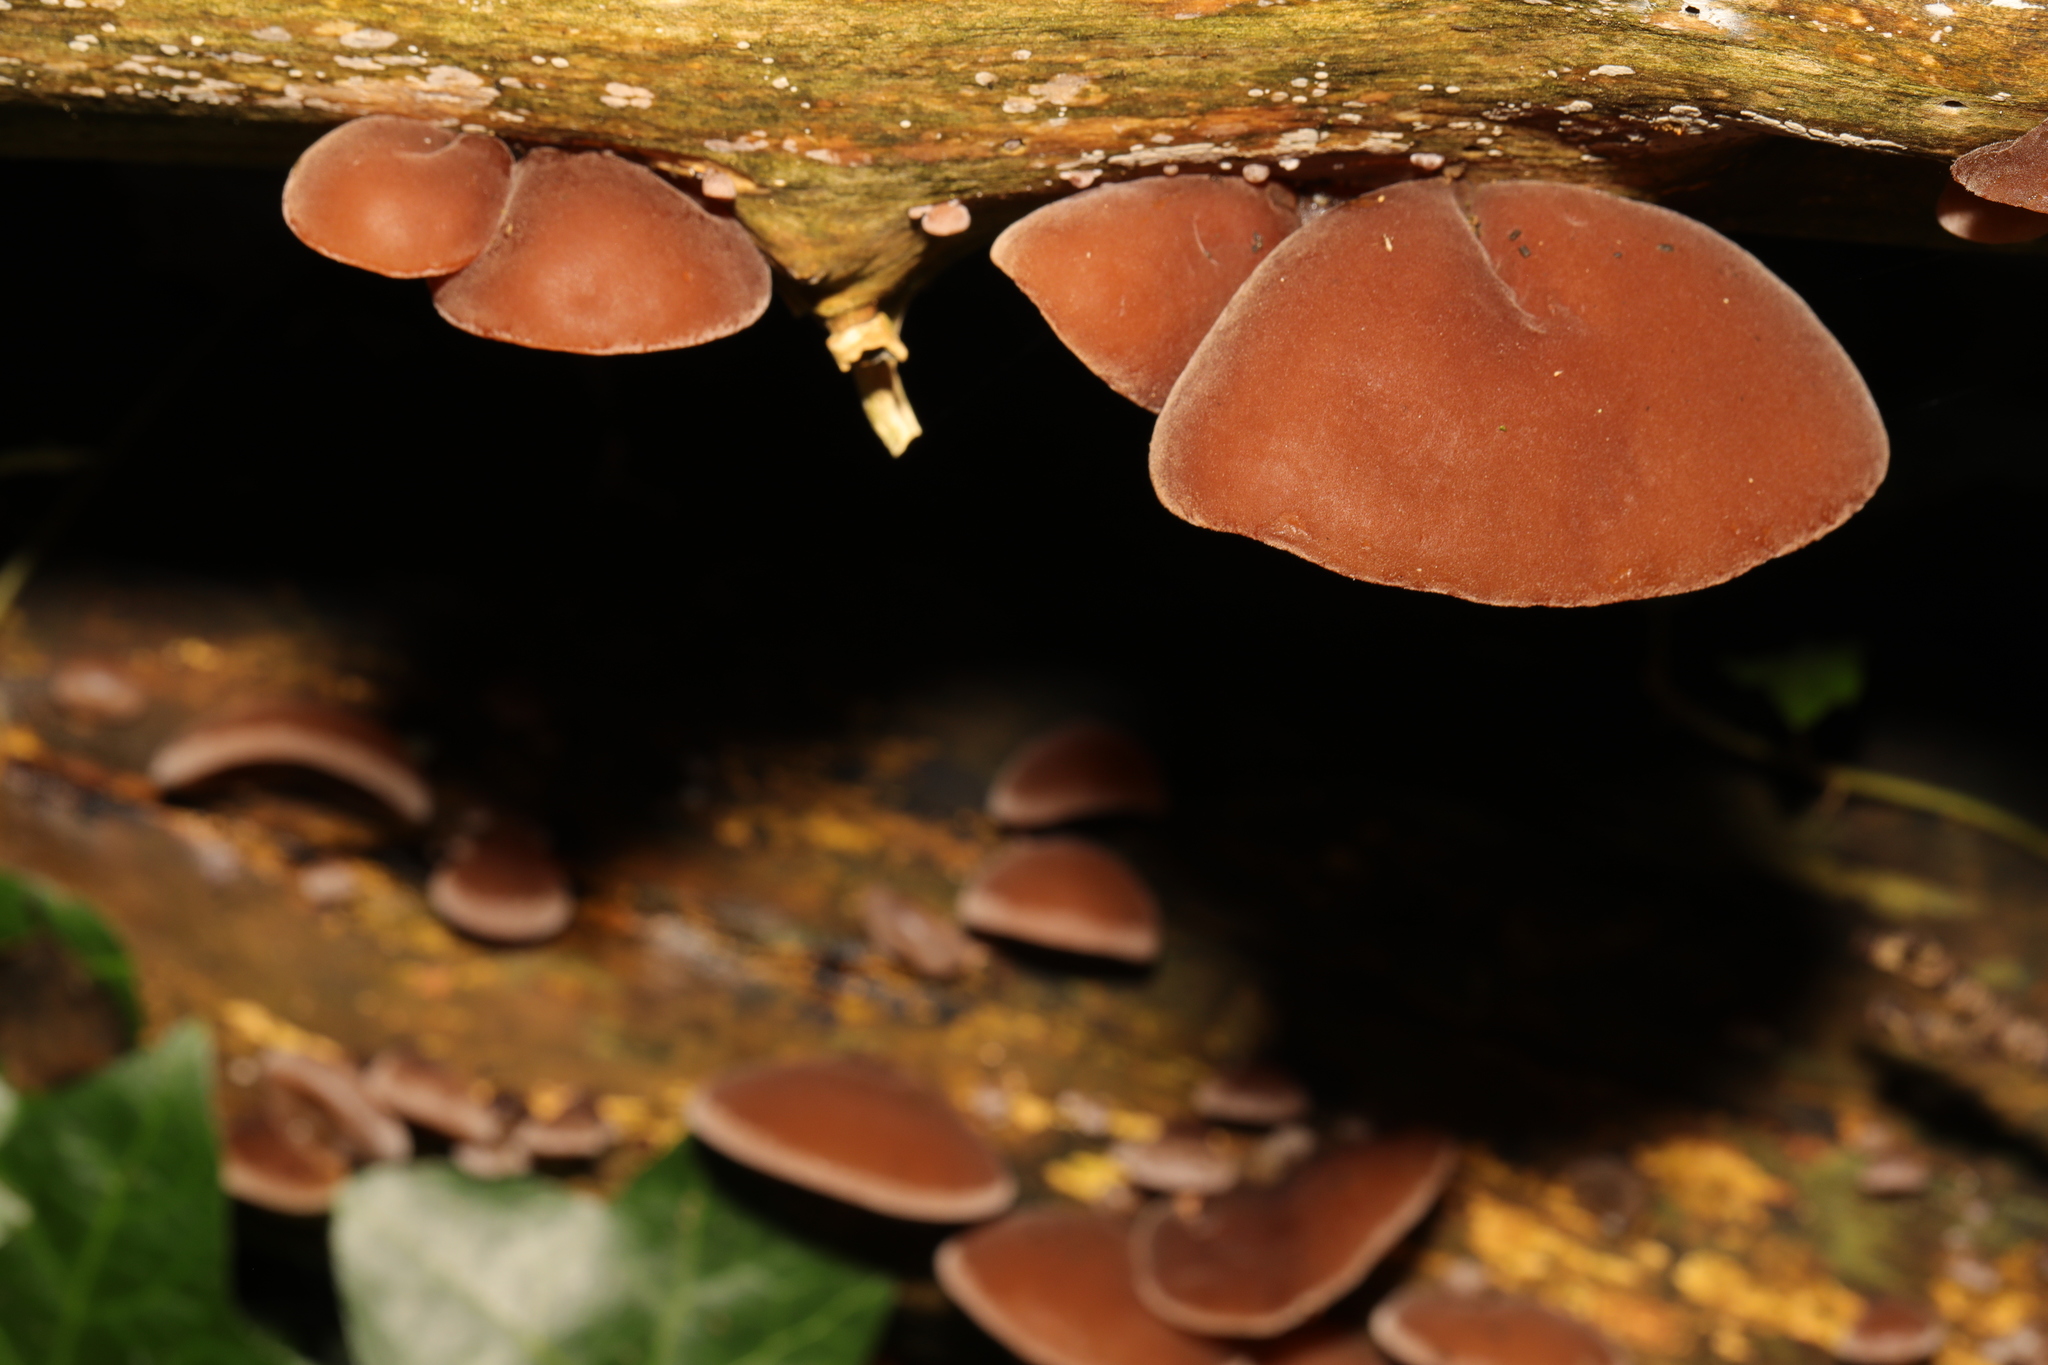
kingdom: Fungi
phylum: Basidiomycota
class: Agaricomycetes
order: Auriculariales
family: Auriculariaceae
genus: Auricularia
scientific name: Auricularia auricula-judae
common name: Jelly ear
